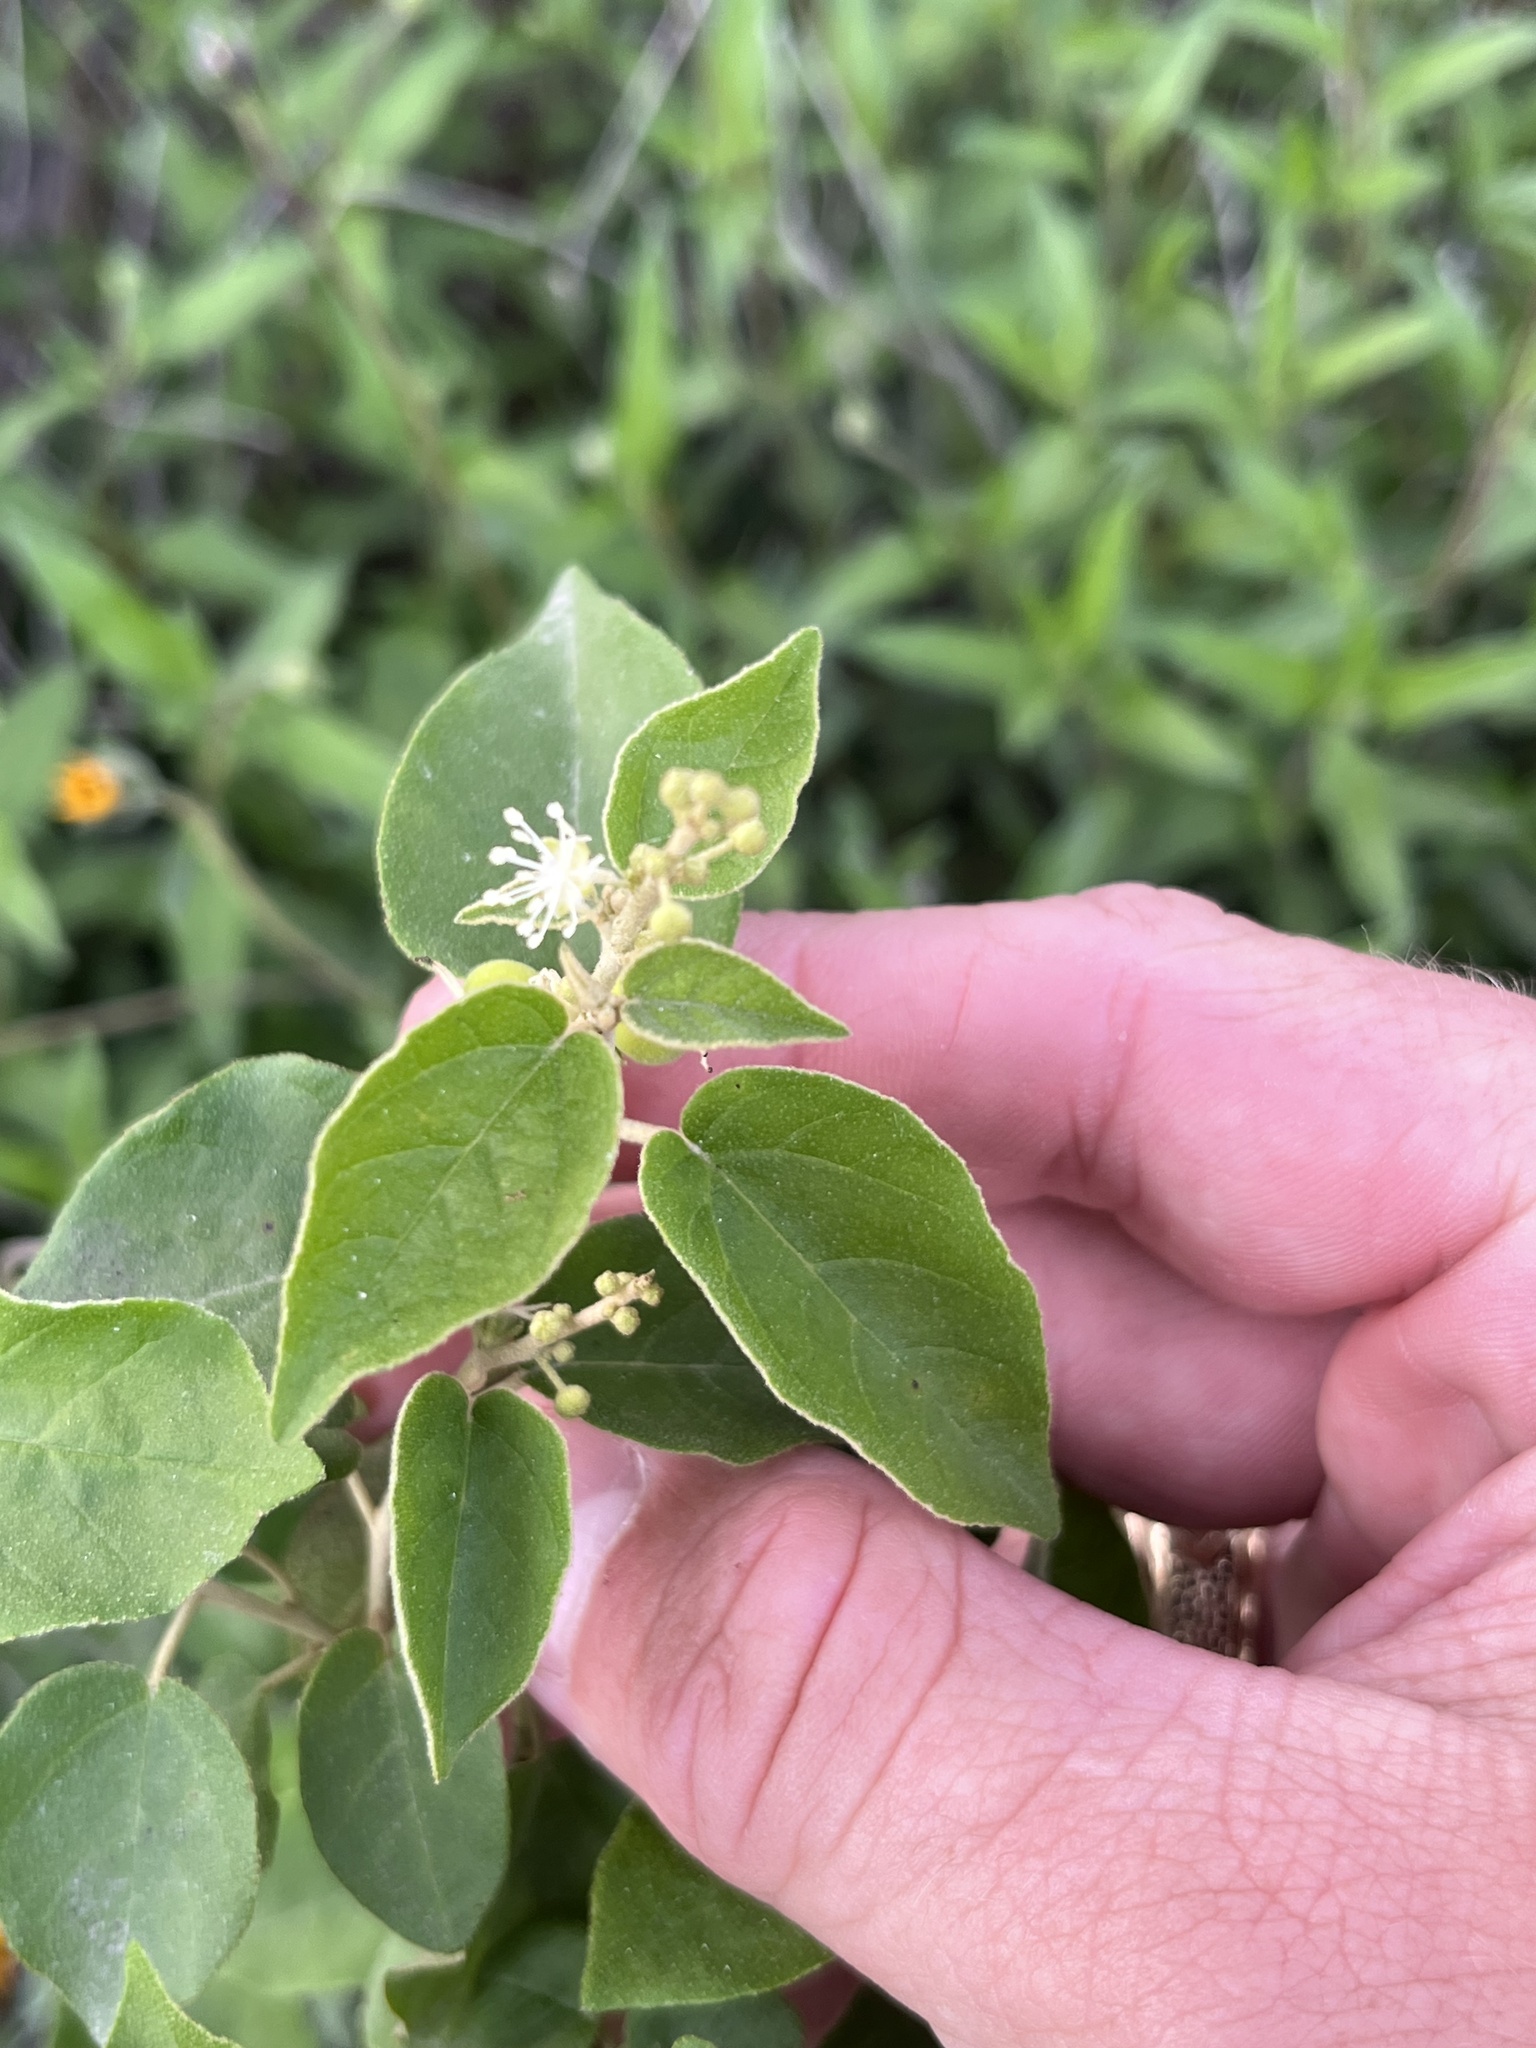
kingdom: Plantae
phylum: Tracheophyta
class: Magnoliopsida
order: Malpighiales
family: Euphorbiaceae
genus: Croton
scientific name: Croton fruticulosus
